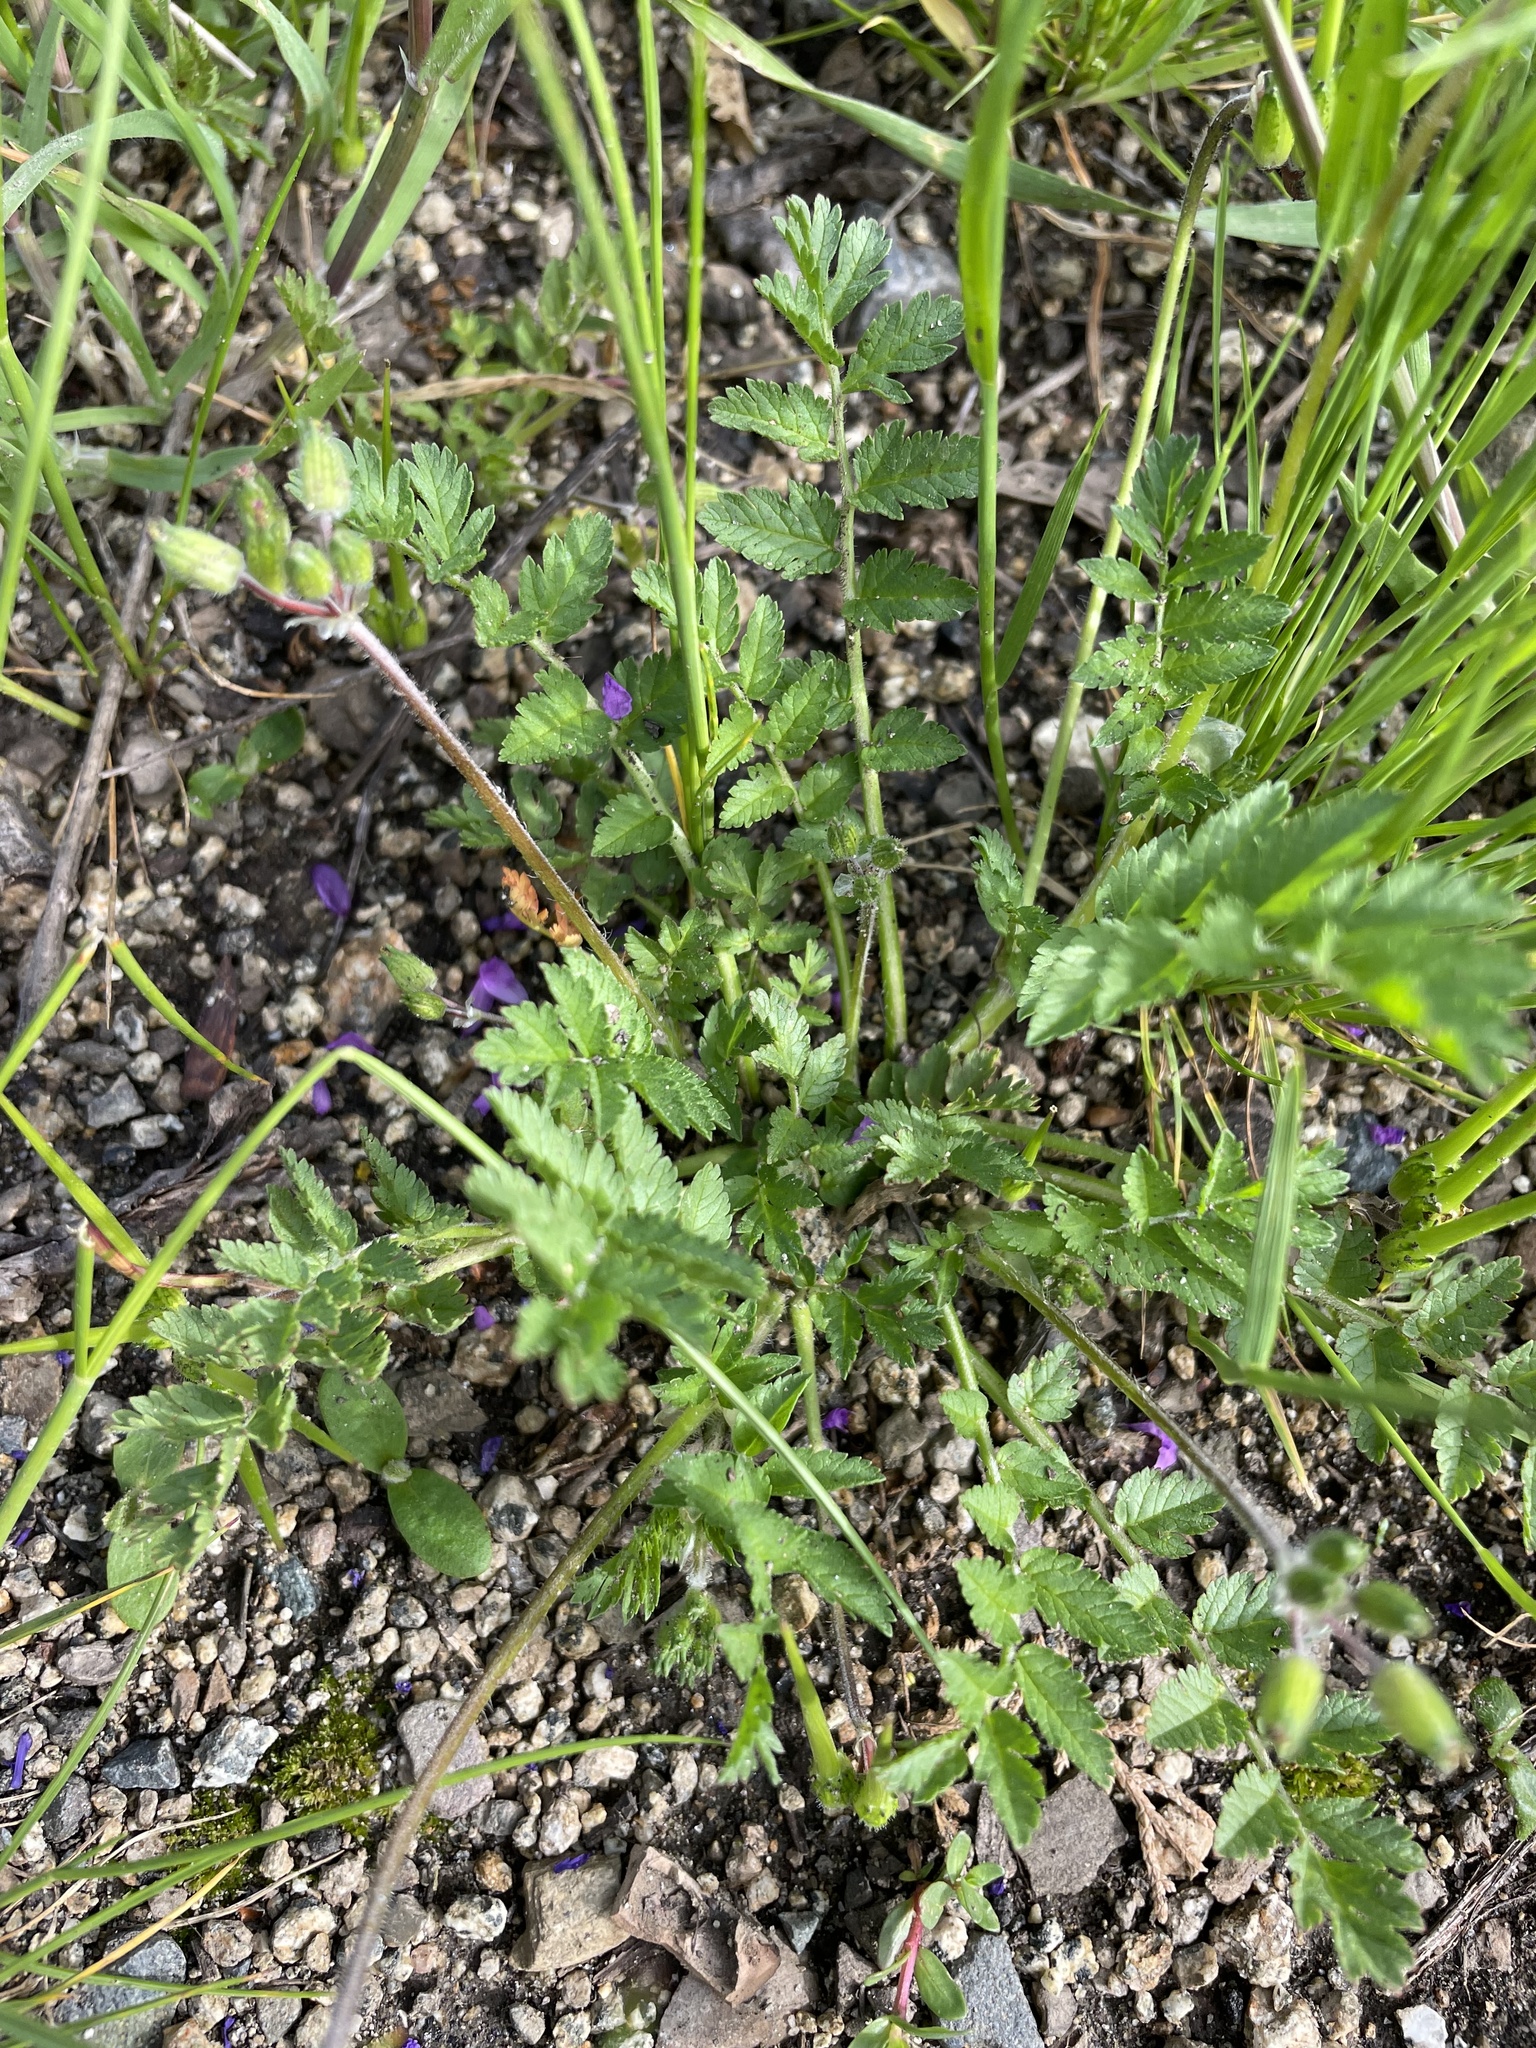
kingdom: Plantae
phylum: Tracheophyta
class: Magnoliopsida
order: Geraniales
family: Geraniaceae
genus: Erodium
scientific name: Erodium moschatum
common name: Musk stork's-bill
